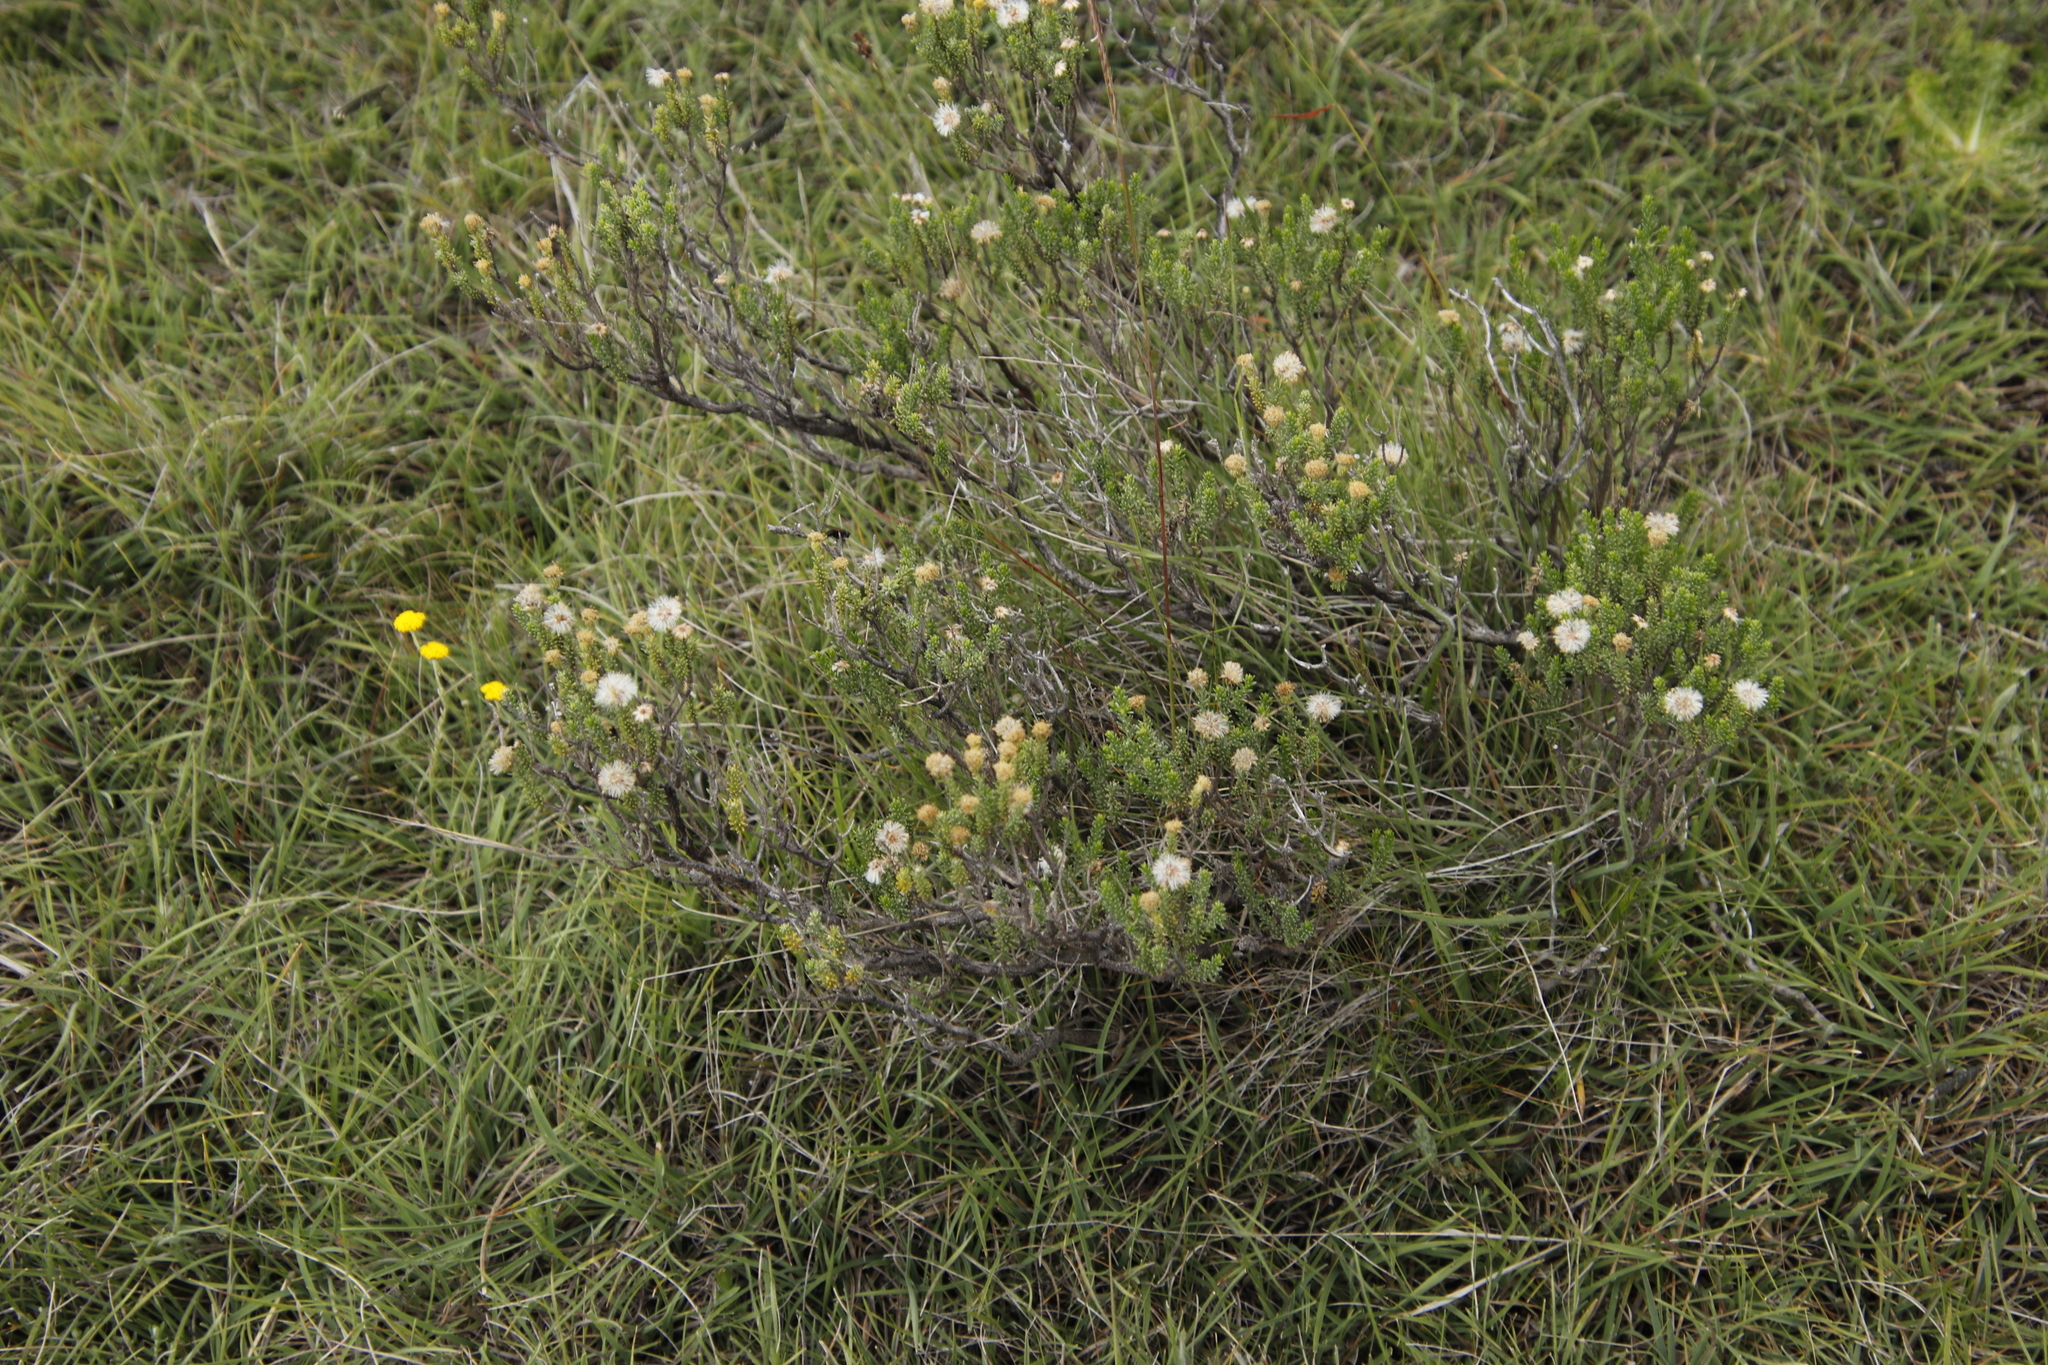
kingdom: Plantae
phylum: Tracheophyta
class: Magnoliopsida
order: Asterales
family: Asteraceae
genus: Chrysocoma
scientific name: Chrysocoma ciliata
